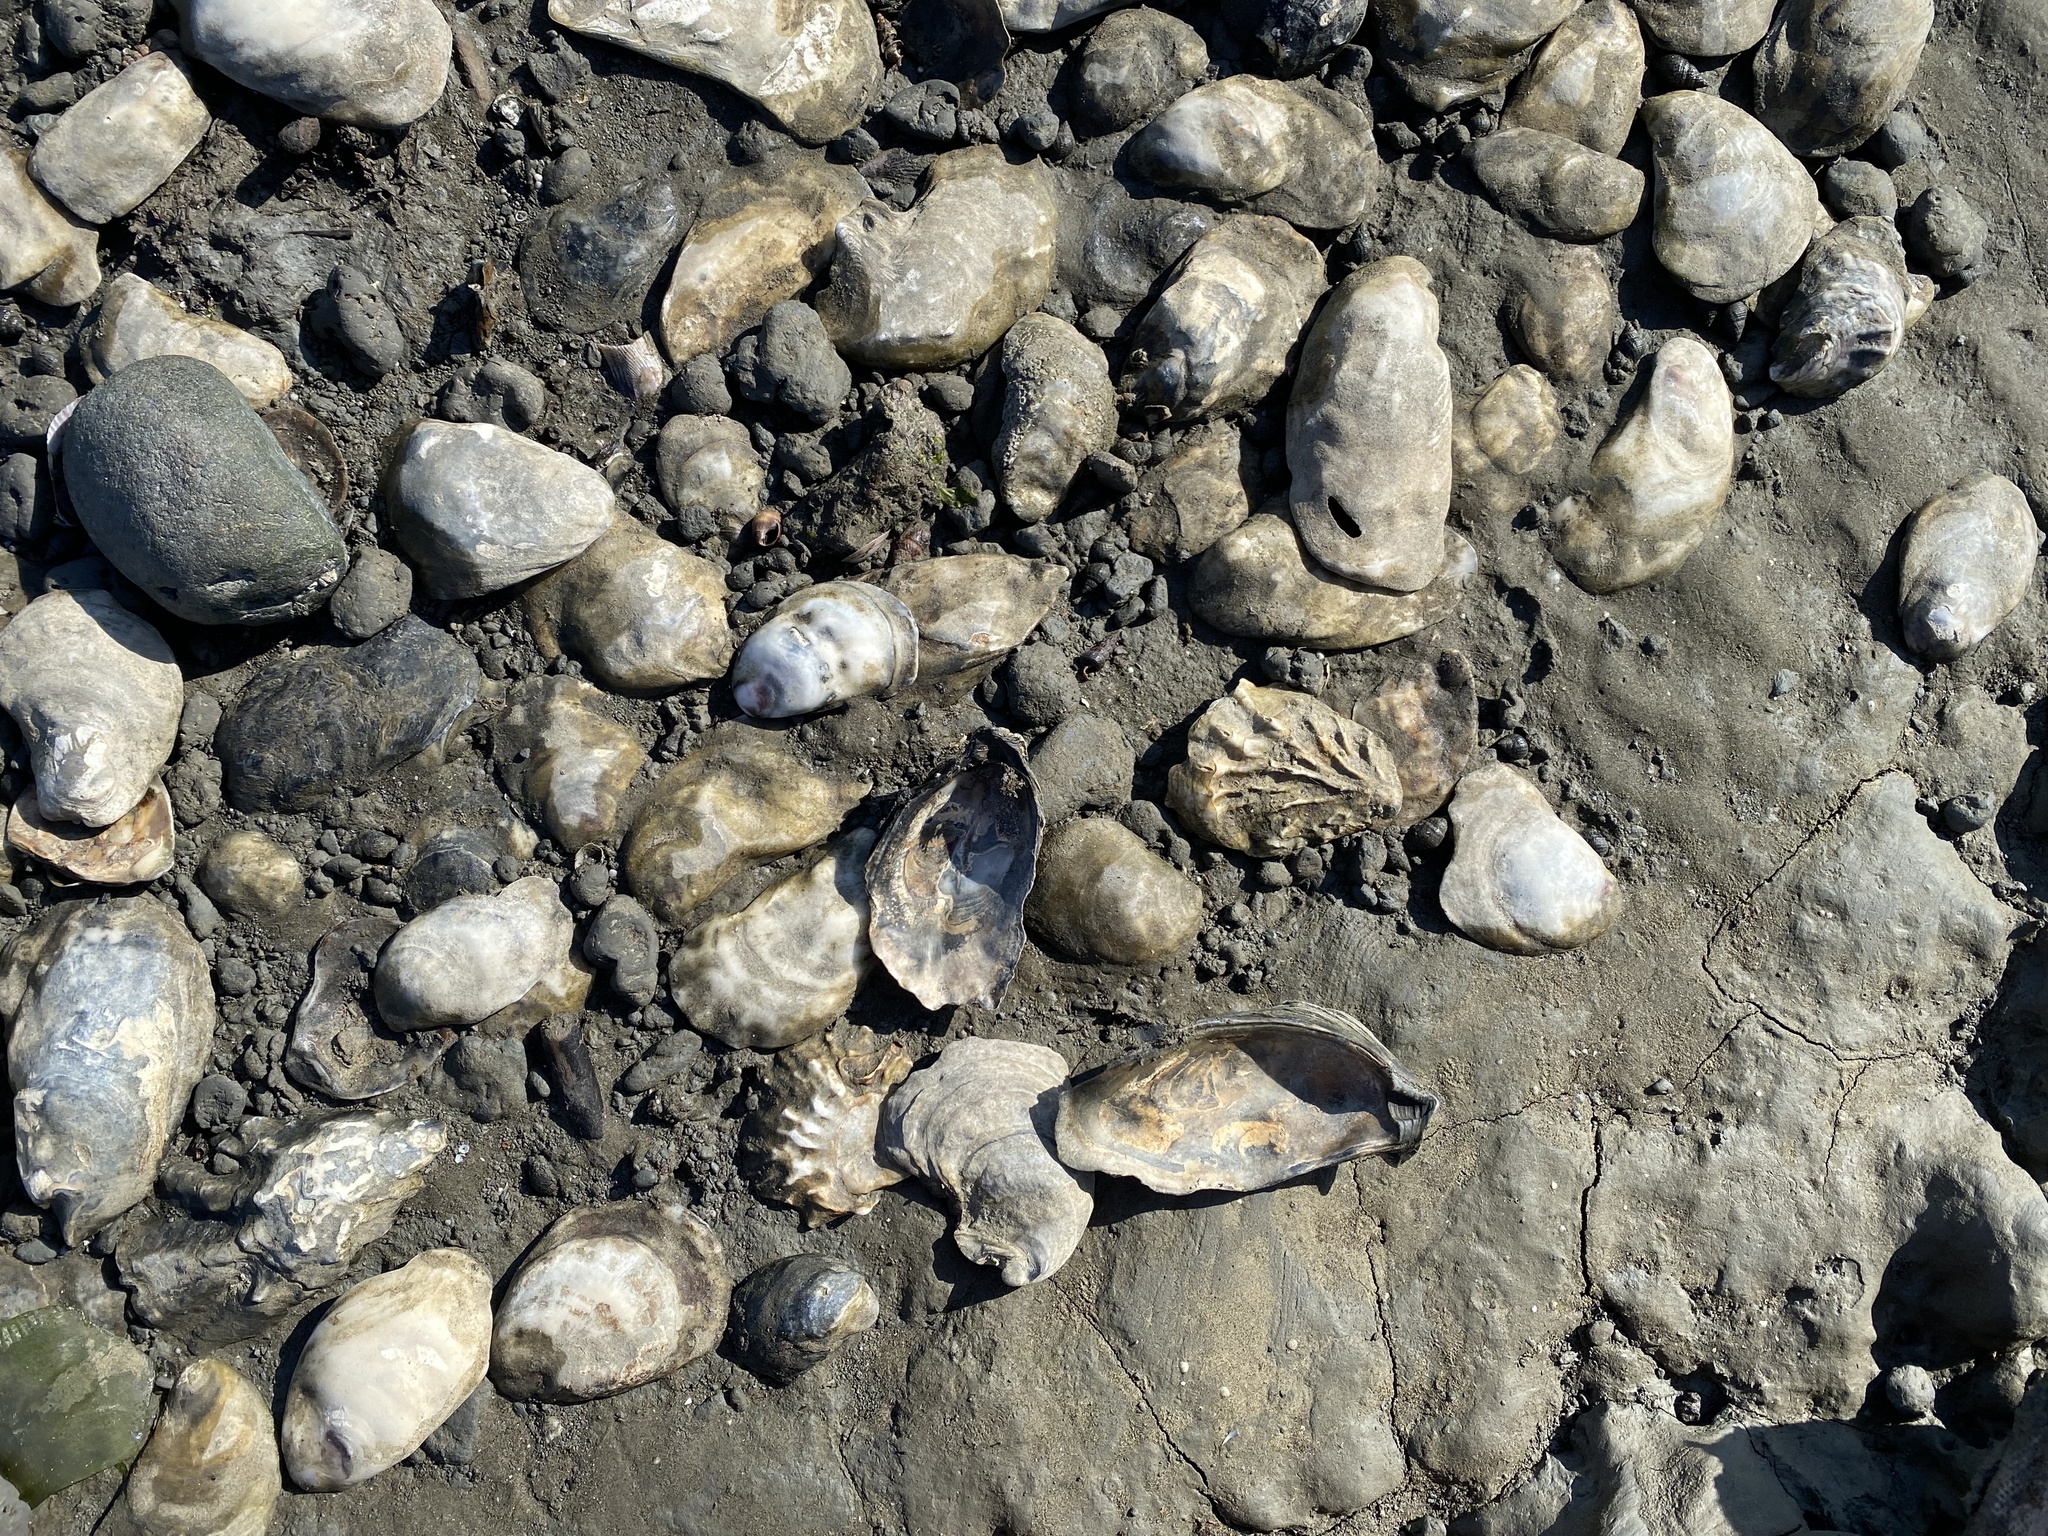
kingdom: Animalia
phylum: Mollusca
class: Bivalvia
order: Ostreida
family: Ostreidae
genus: Magallana
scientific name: Magallana gigas
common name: Pacific oyster
